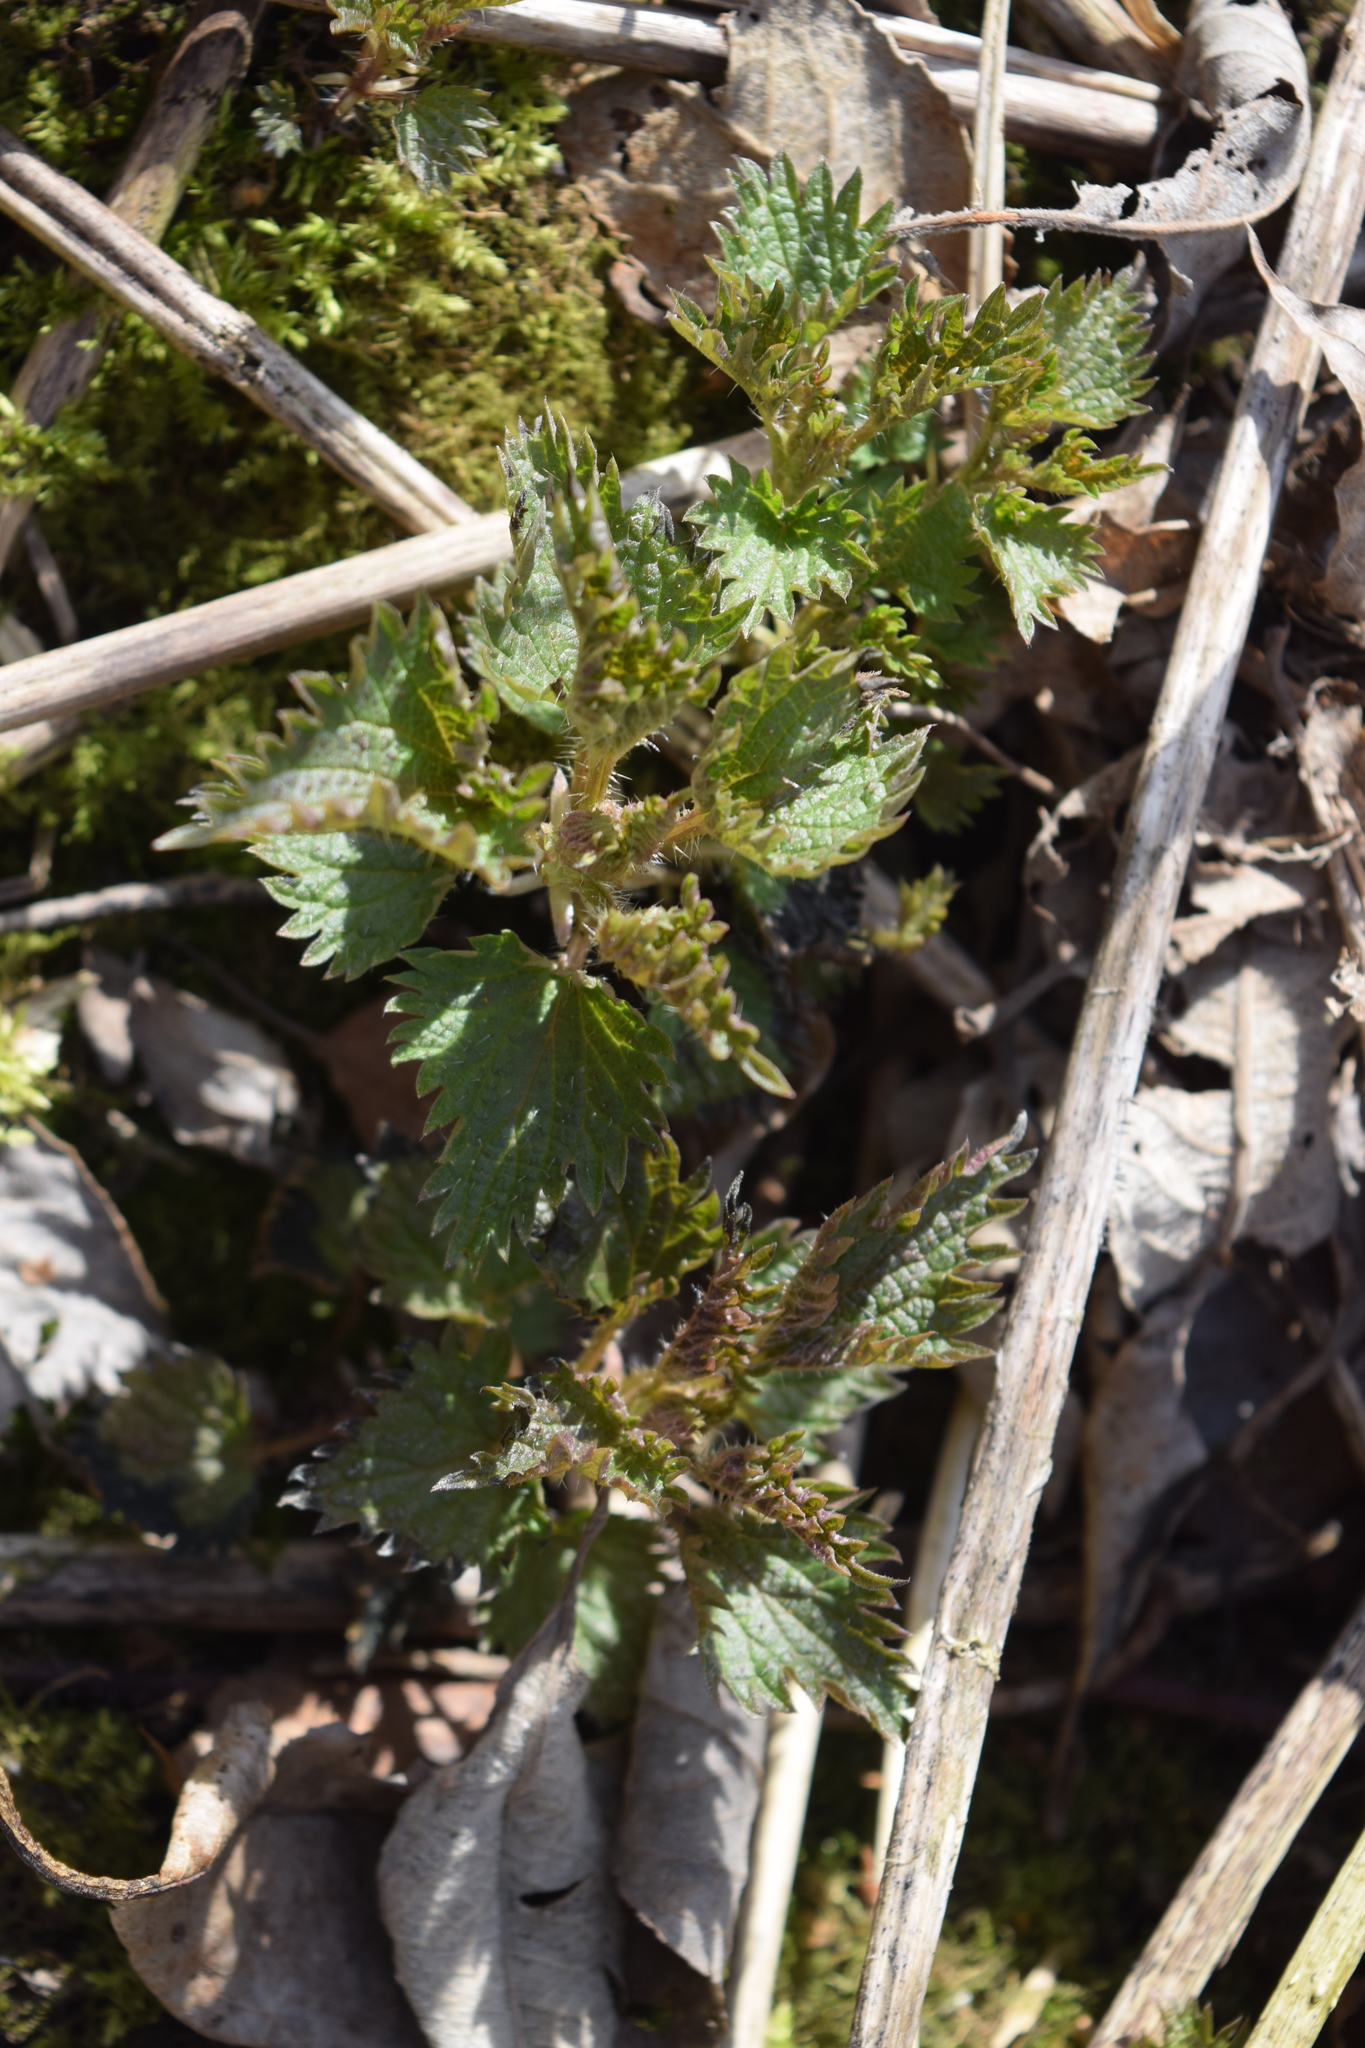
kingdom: Plantae
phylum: Tracheophyta
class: Magnoliopsida
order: Rosales
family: Urticaceae
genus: Urtica
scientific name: Urtica dioica
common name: Common nettle
